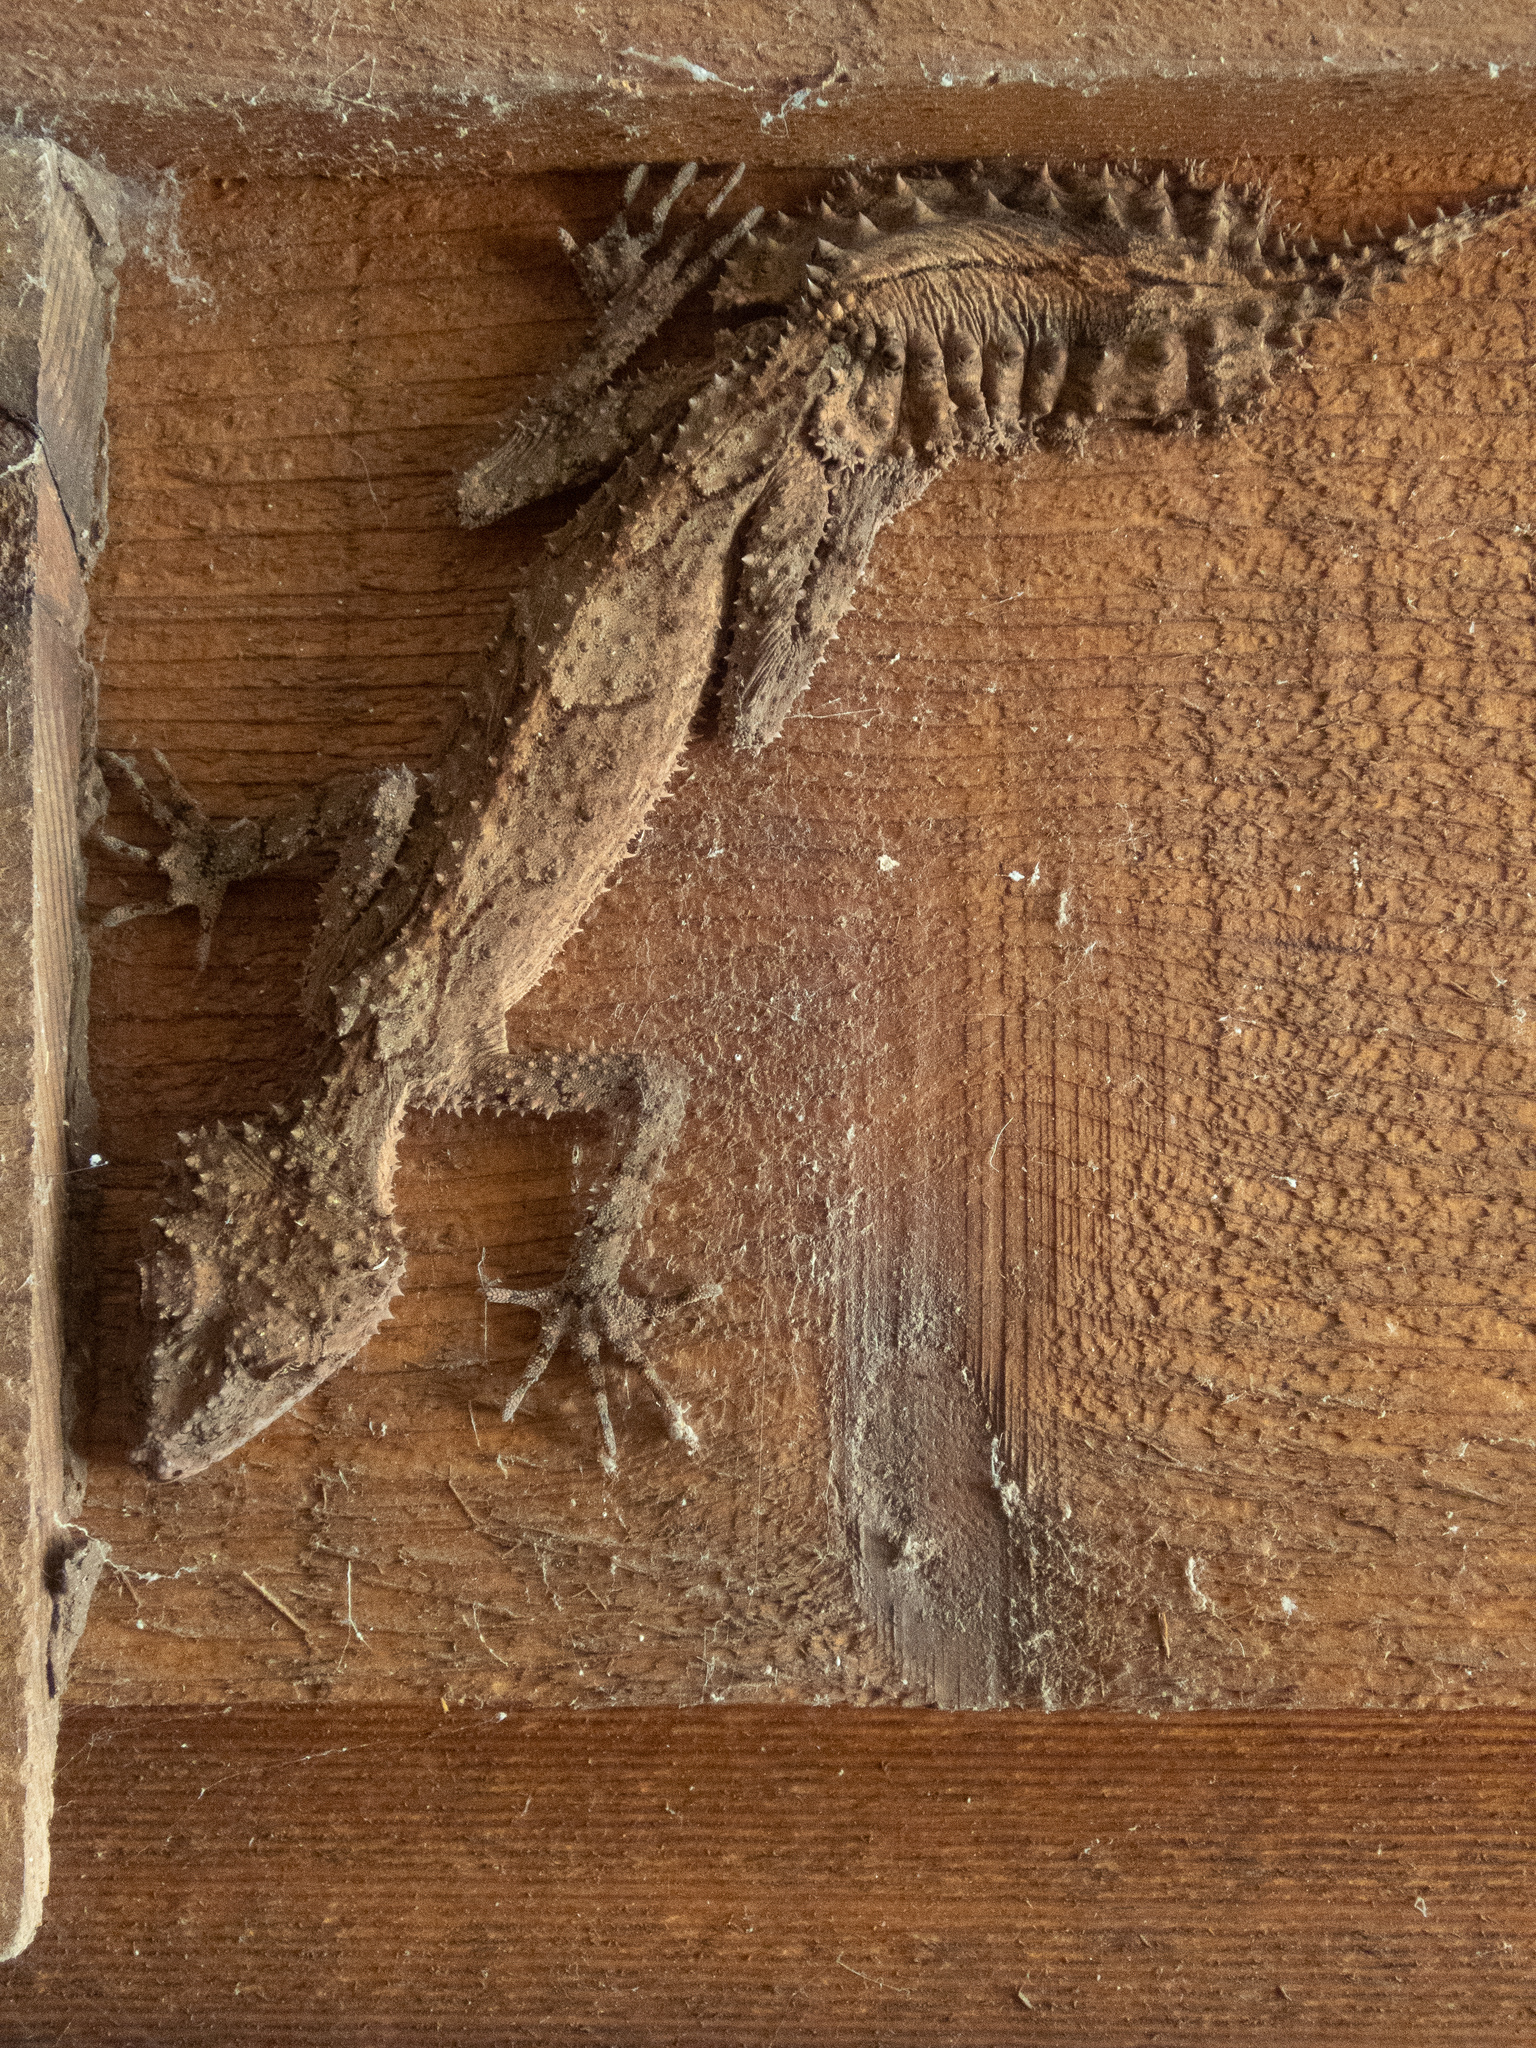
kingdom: Animalia
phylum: Chordata
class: Squamata
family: Carphodactylidae
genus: Saltuarius
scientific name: Saltuarius cornutus
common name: Leaf-tailed gecko
